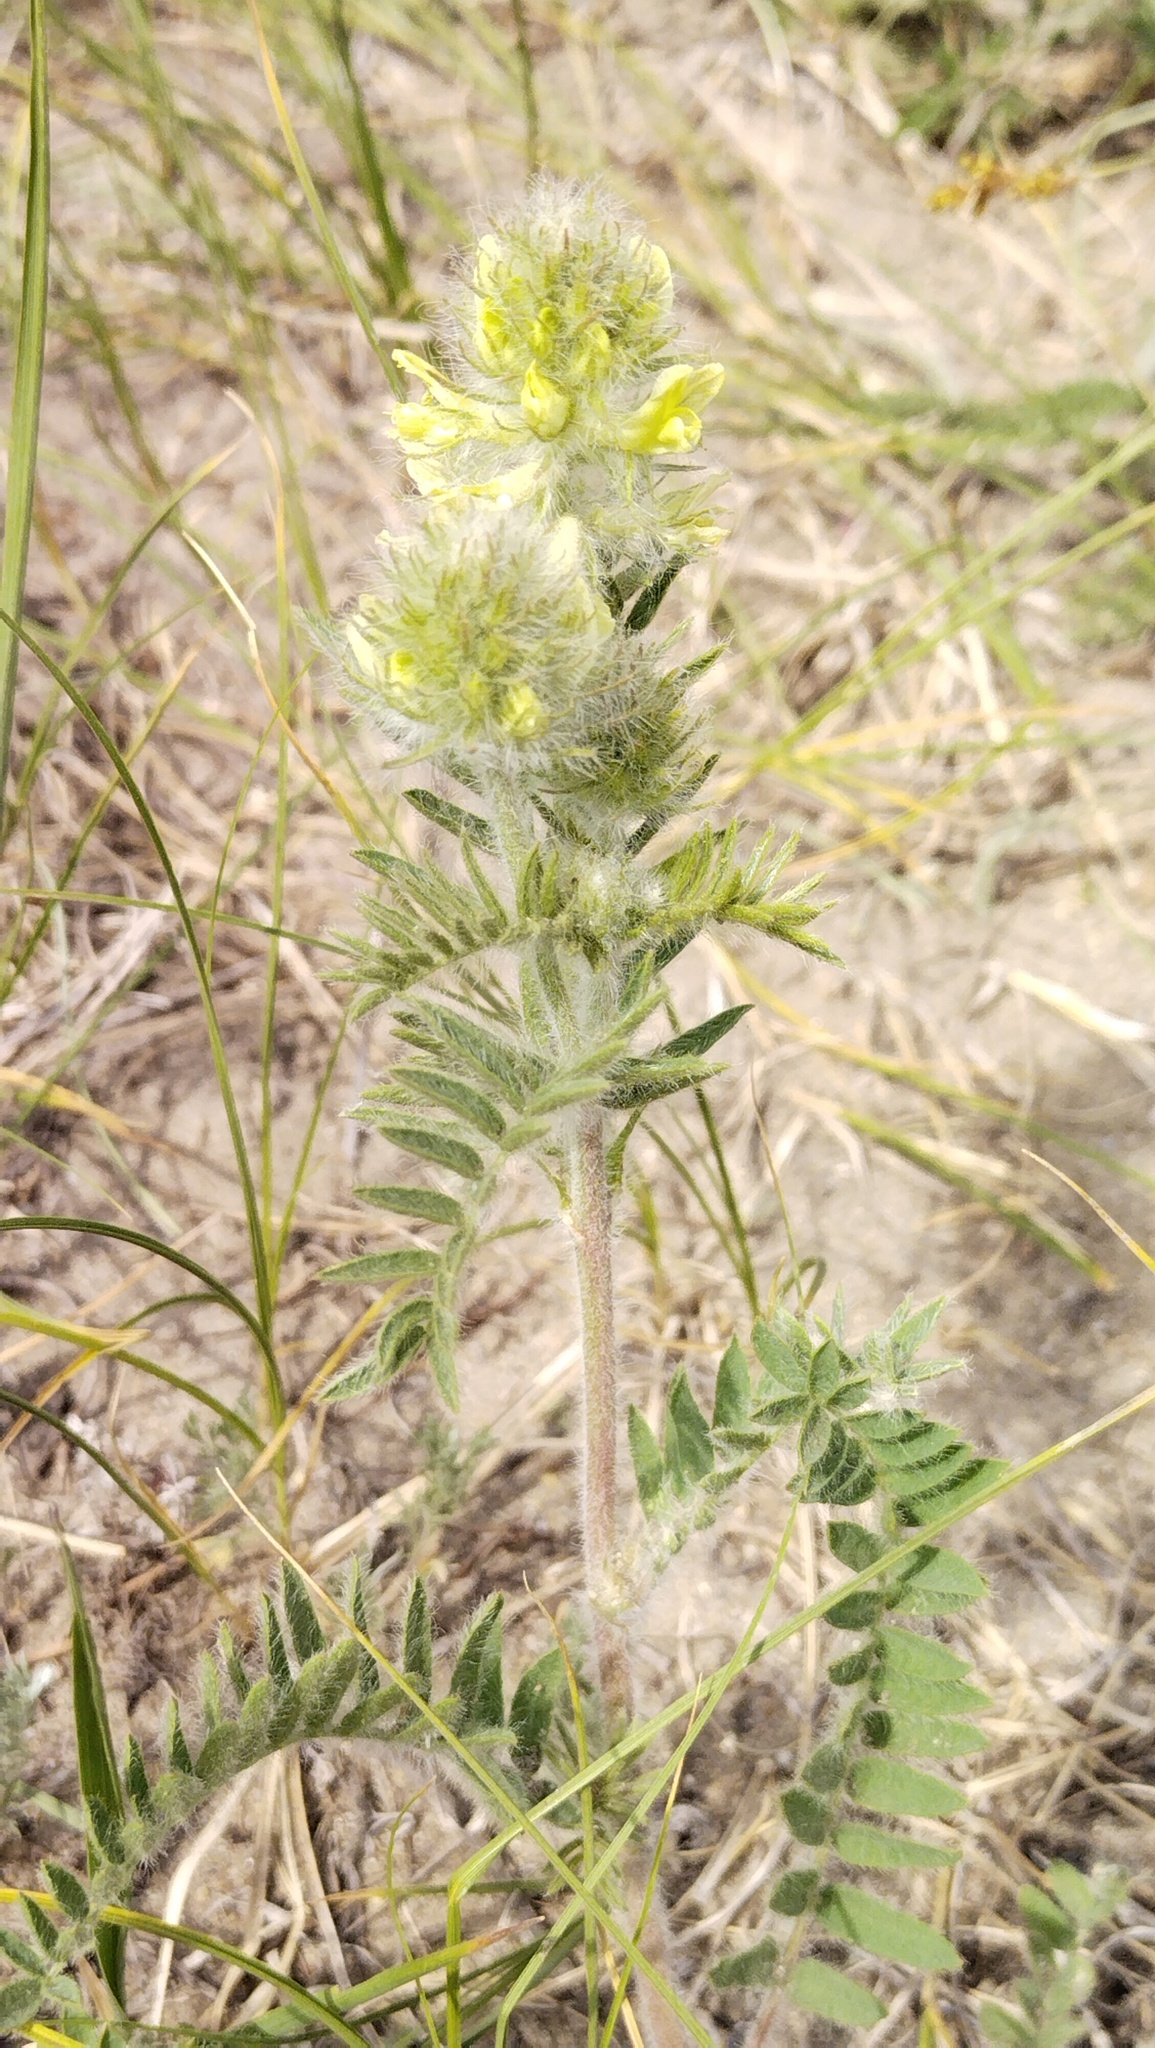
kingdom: Plantae
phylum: Tracheophyta
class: Magnoliopsida
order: Fabales
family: Fabaceae
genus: Oxytropis
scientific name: Oxytropis pilosa
